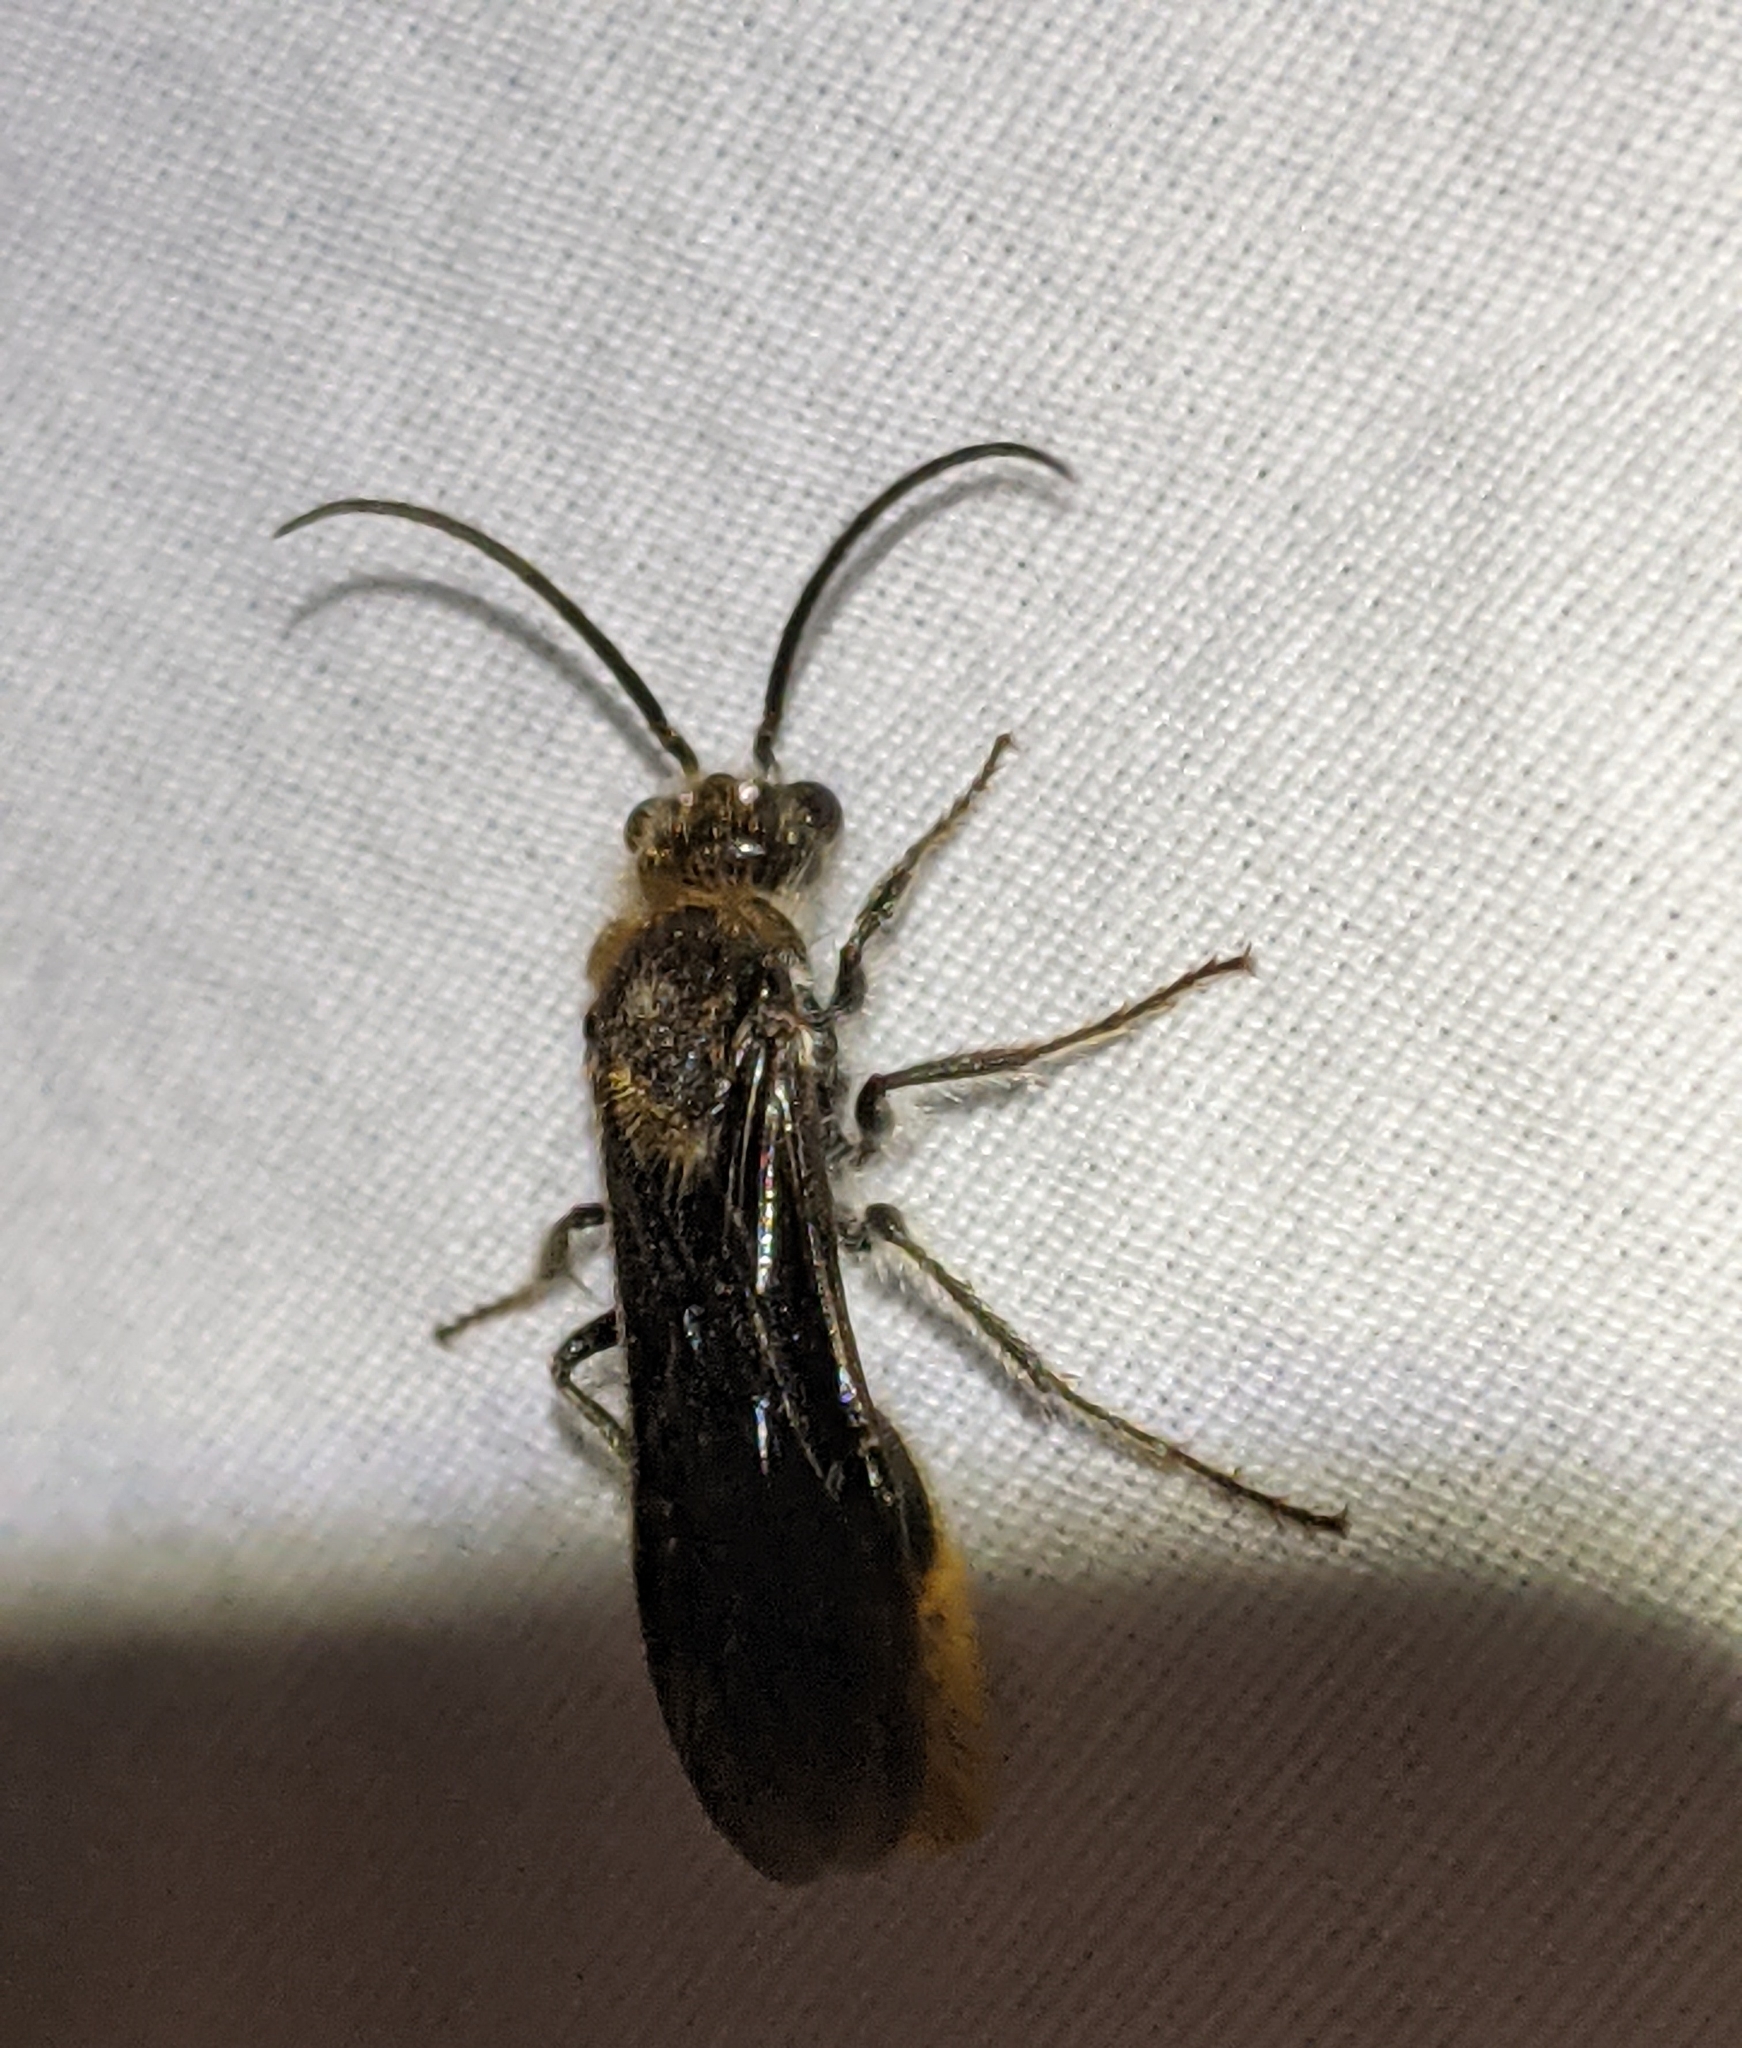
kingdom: Animalia
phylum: Arthropoda
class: Insecta
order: Hymenoptera
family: Mutillidae
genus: Sphaeropthalma
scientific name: Sphaeropthalma marpesia
